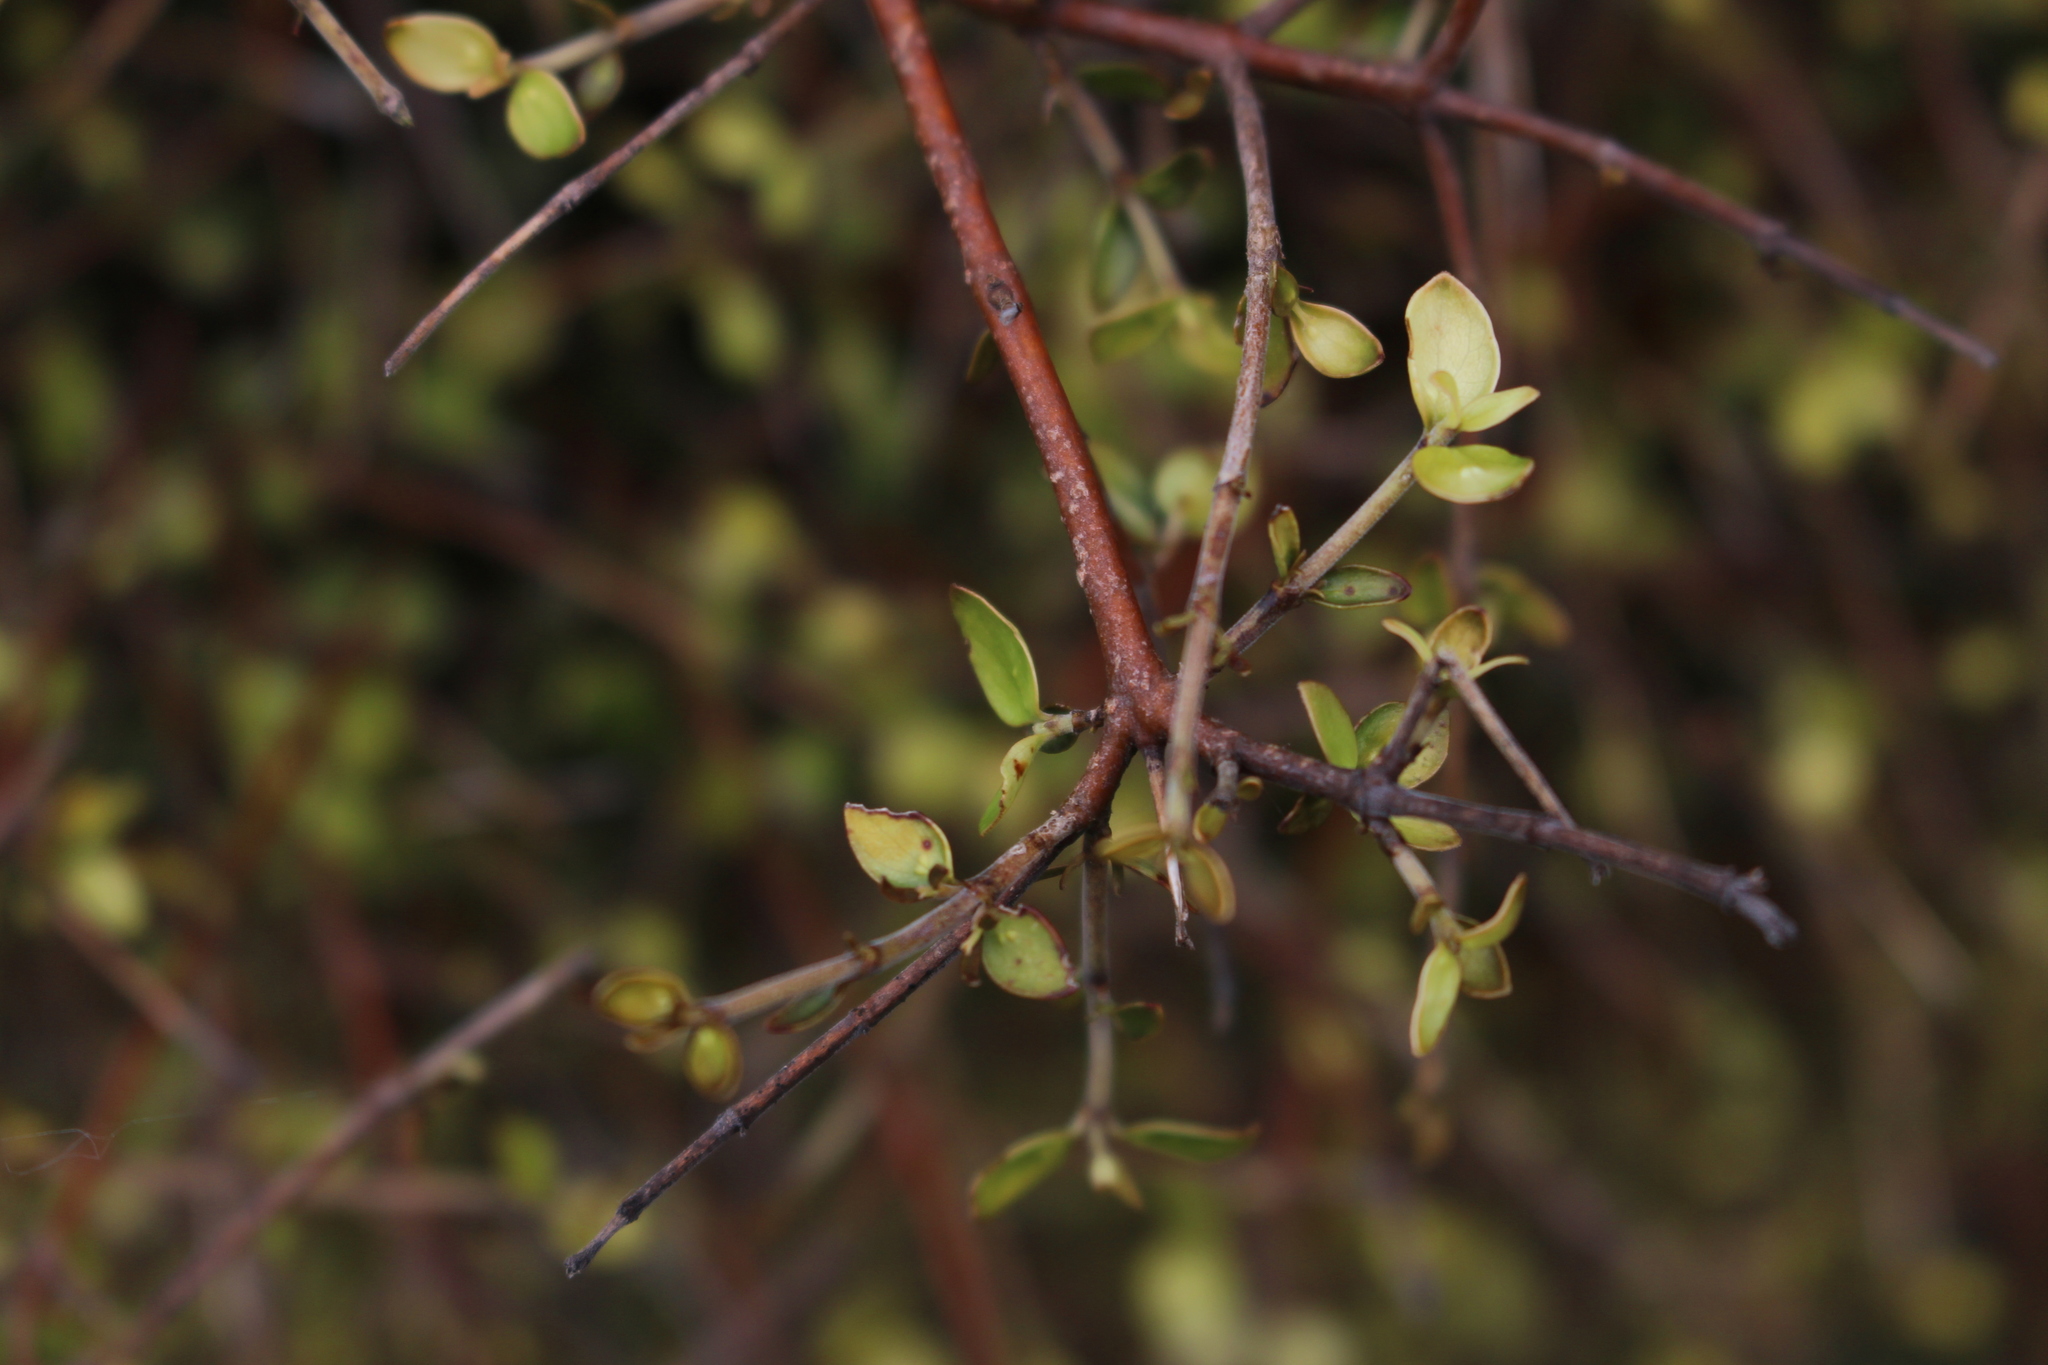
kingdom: Plantae
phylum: Tracheophyta
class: Magnoliopsida
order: Gentianales
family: Rubiaceae
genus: Coprosma
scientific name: Coprosma rhamnoides
